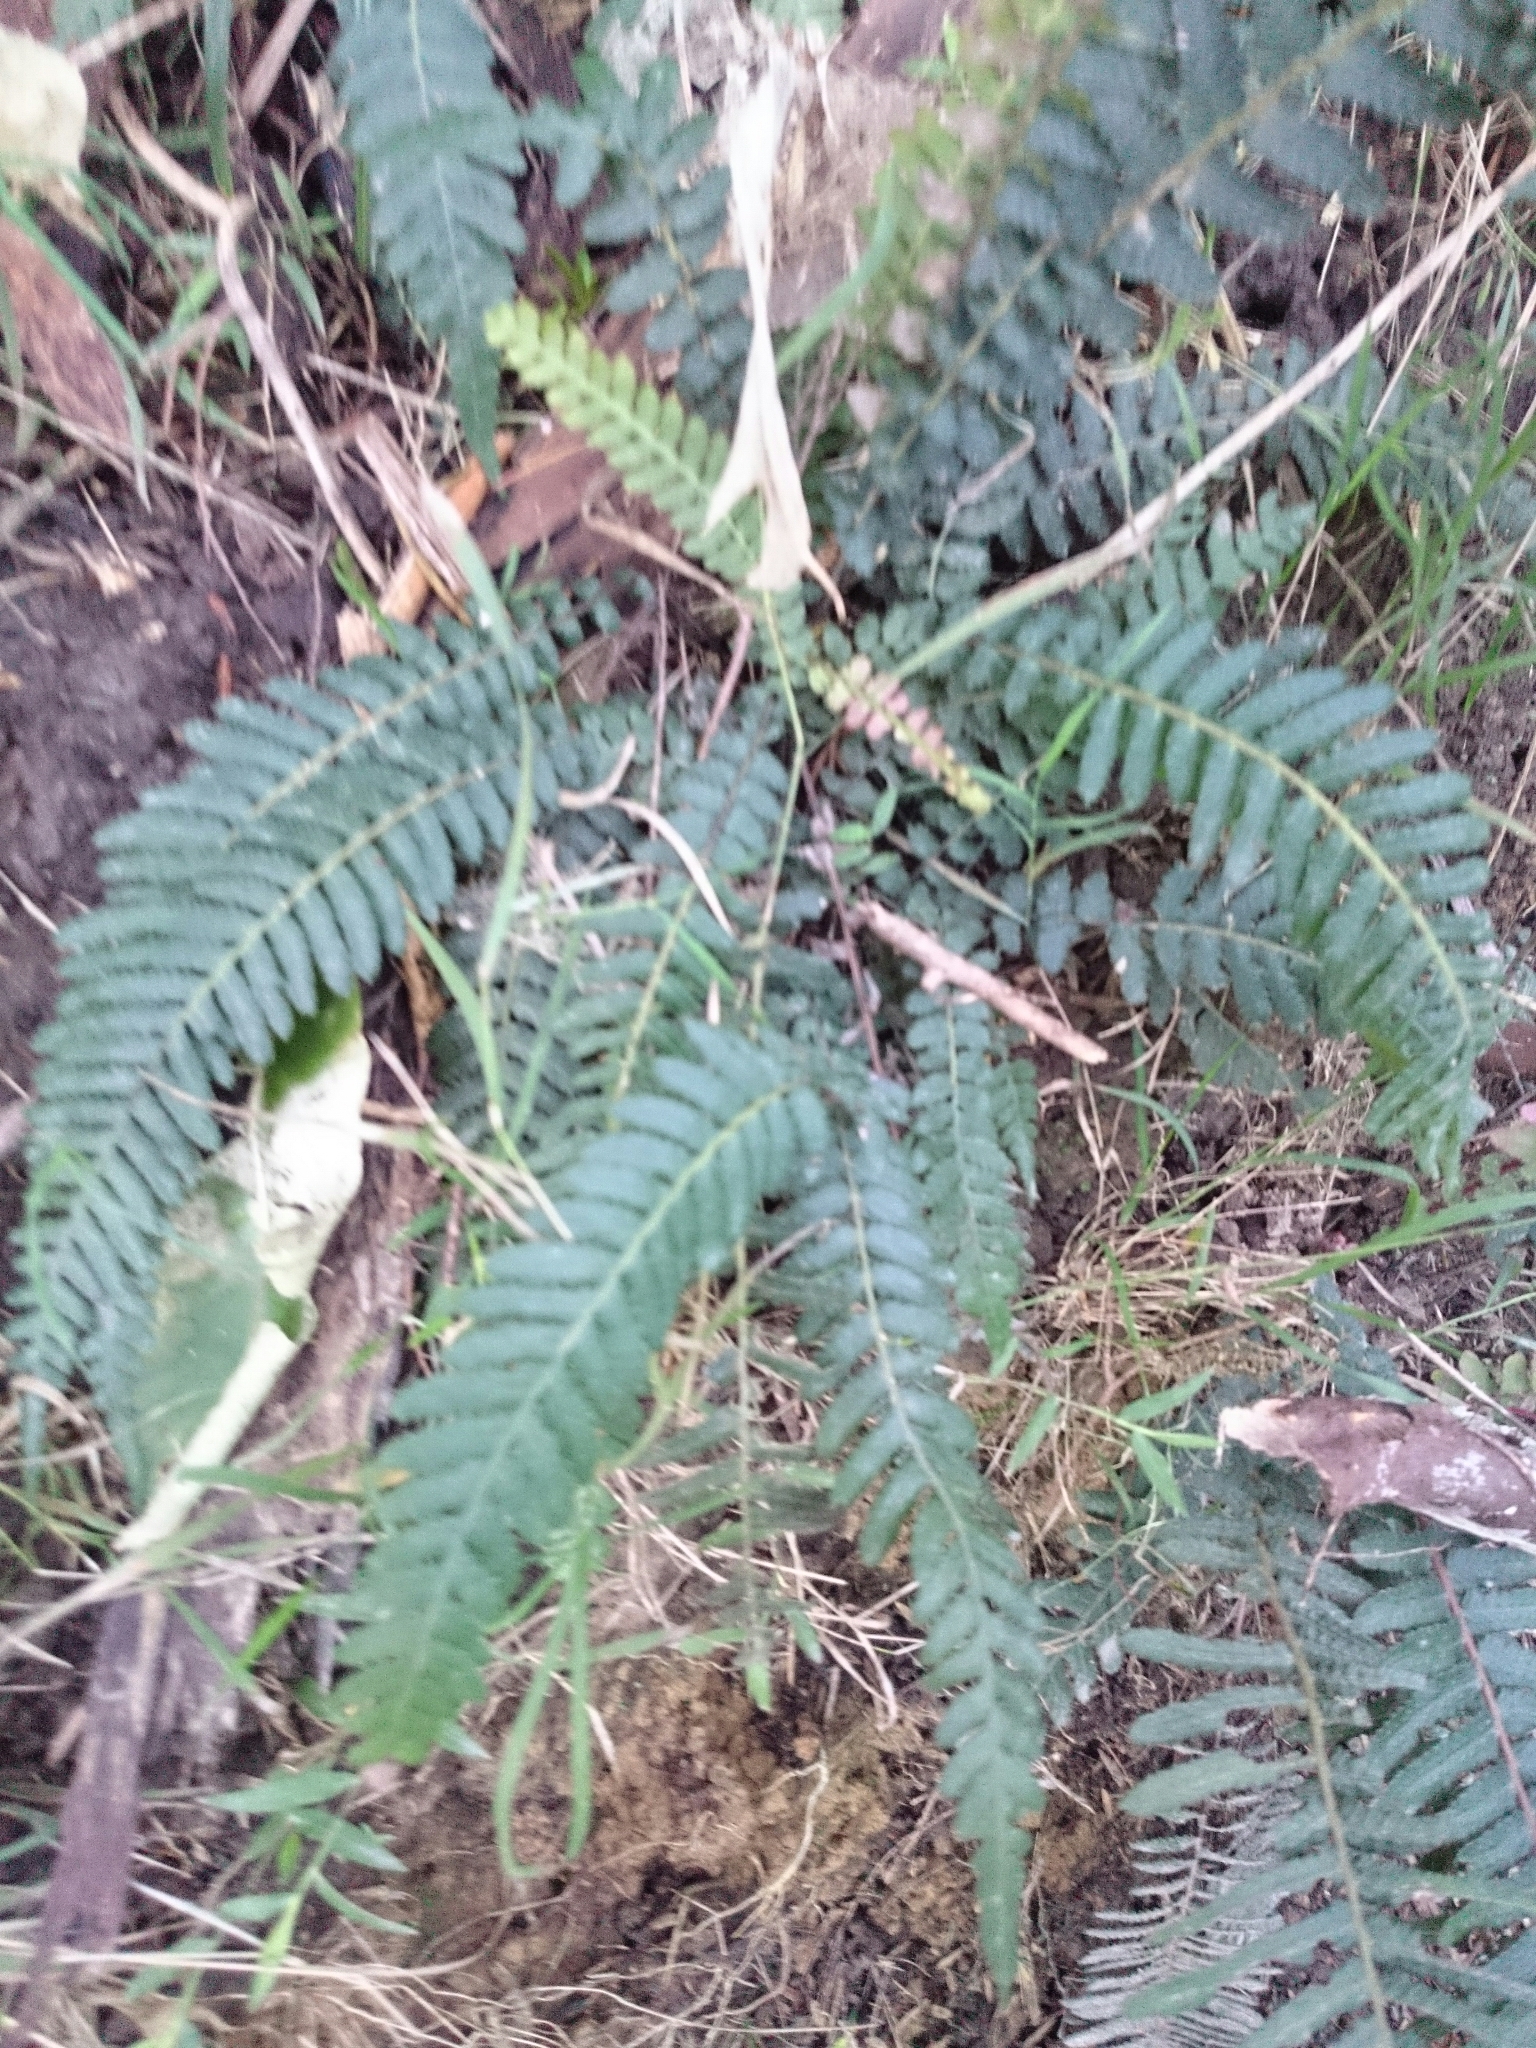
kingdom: Plantae
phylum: Tracheophyta
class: Polypodiopsida
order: Polypodiales
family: Blechnaceae
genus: Doodia
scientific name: Doodia australis
